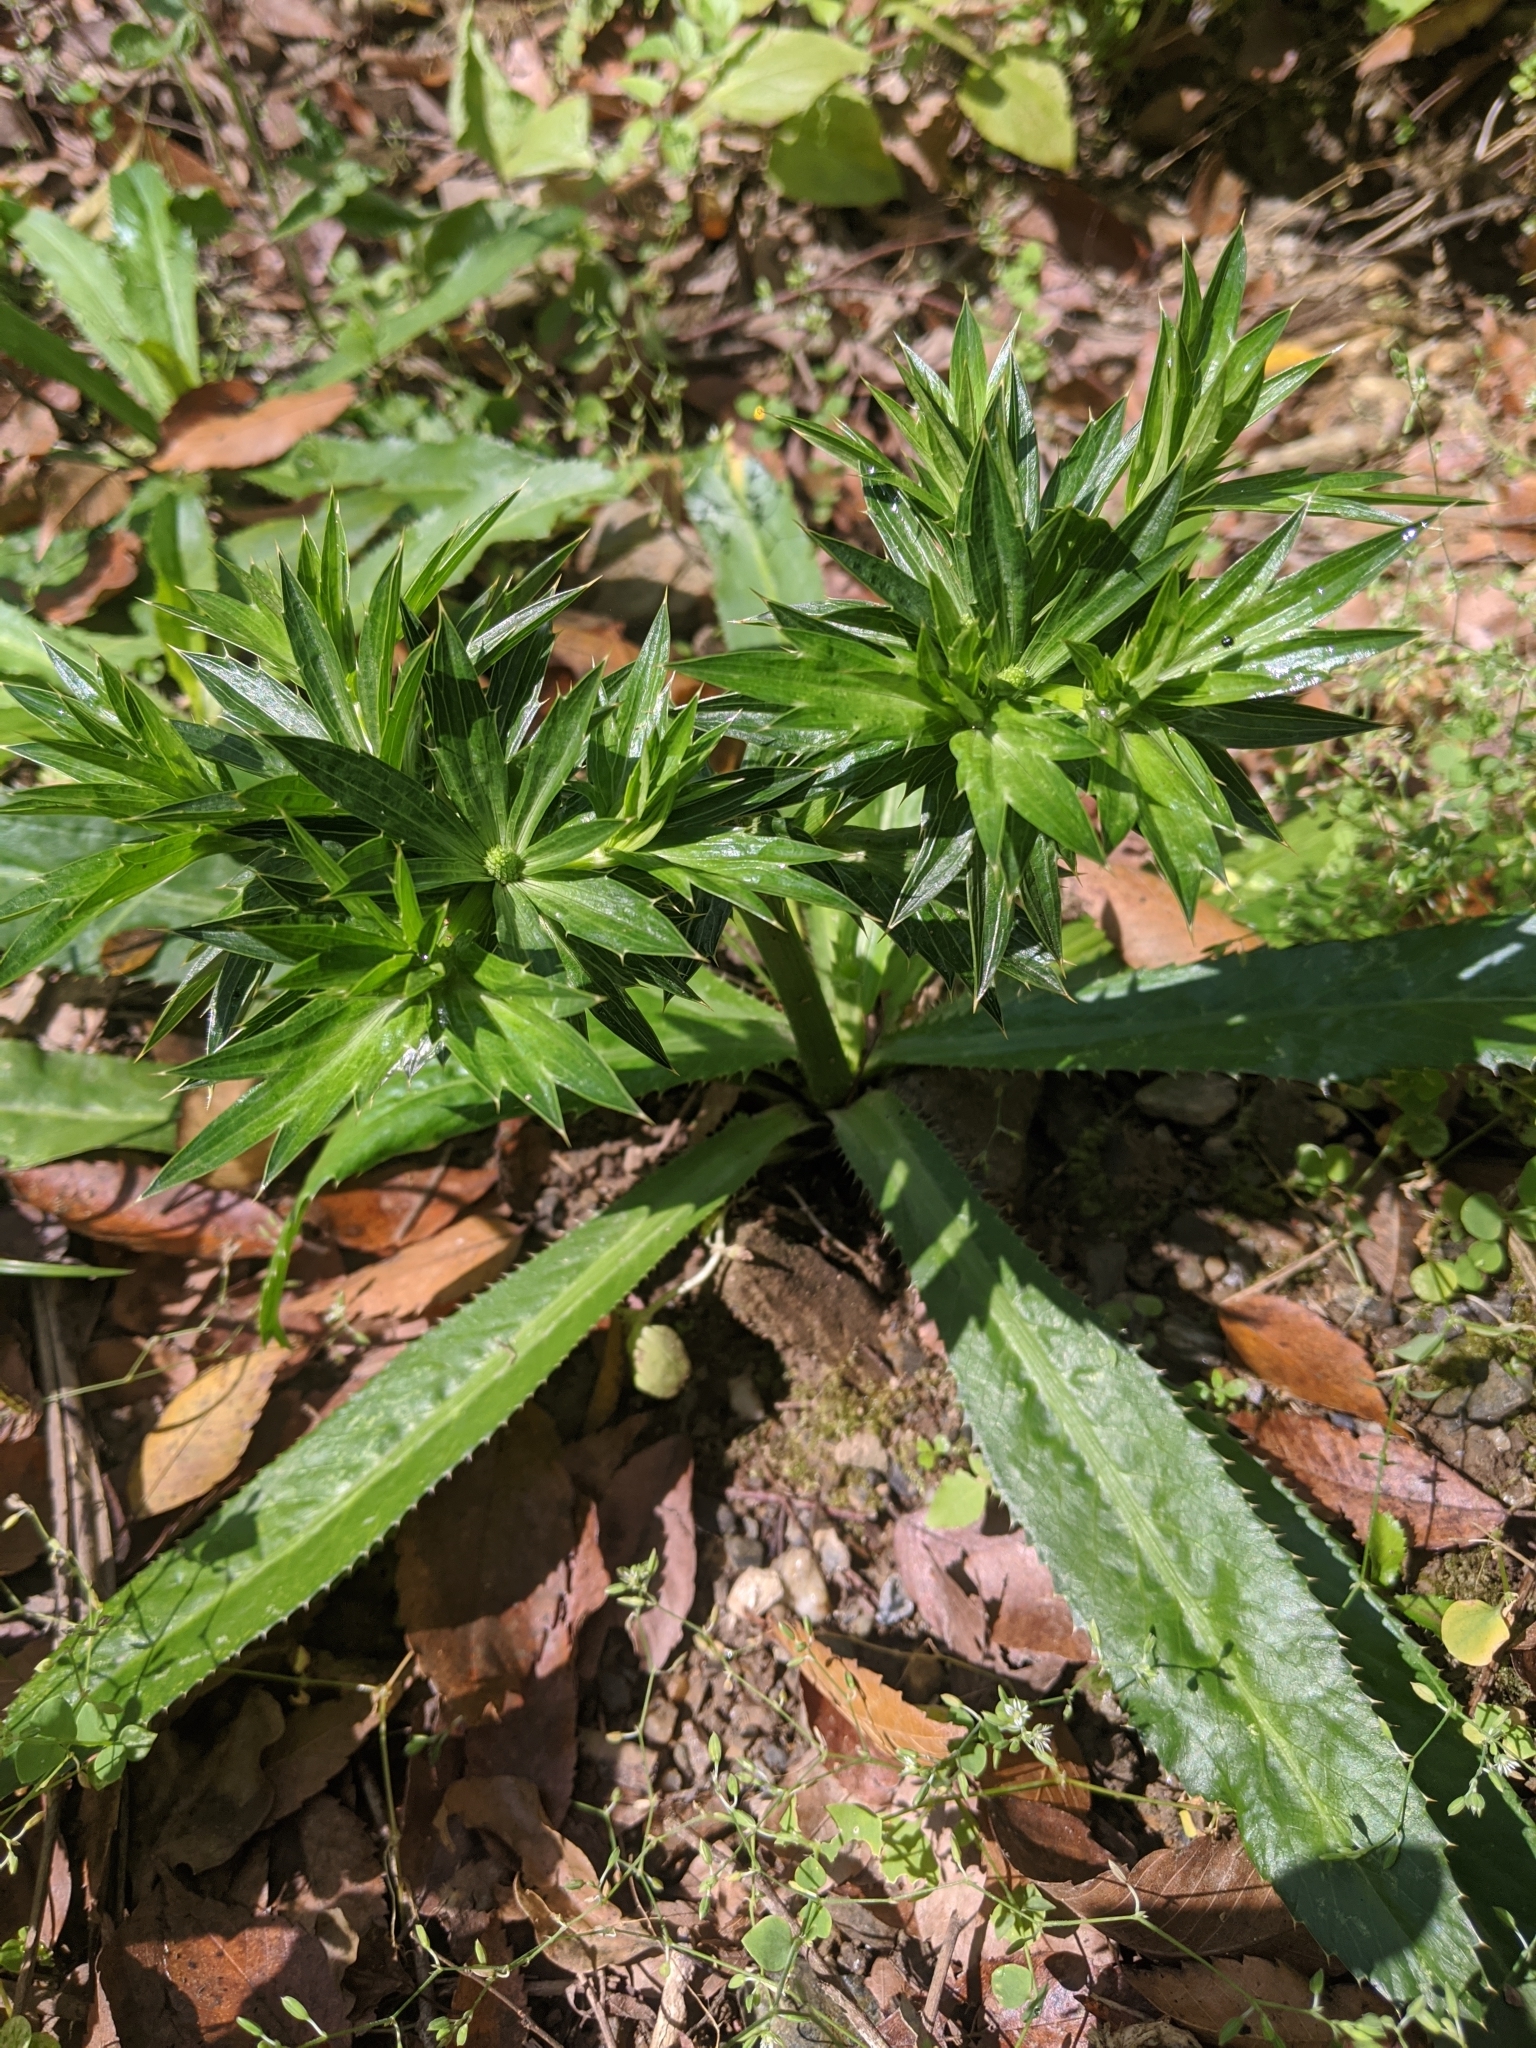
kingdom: Plantae
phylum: Tracheophyta
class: Magnoliopsida
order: Apiales
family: Apiaceae
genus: Eryngium
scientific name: Eryngium foetidum
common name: Fitweed
